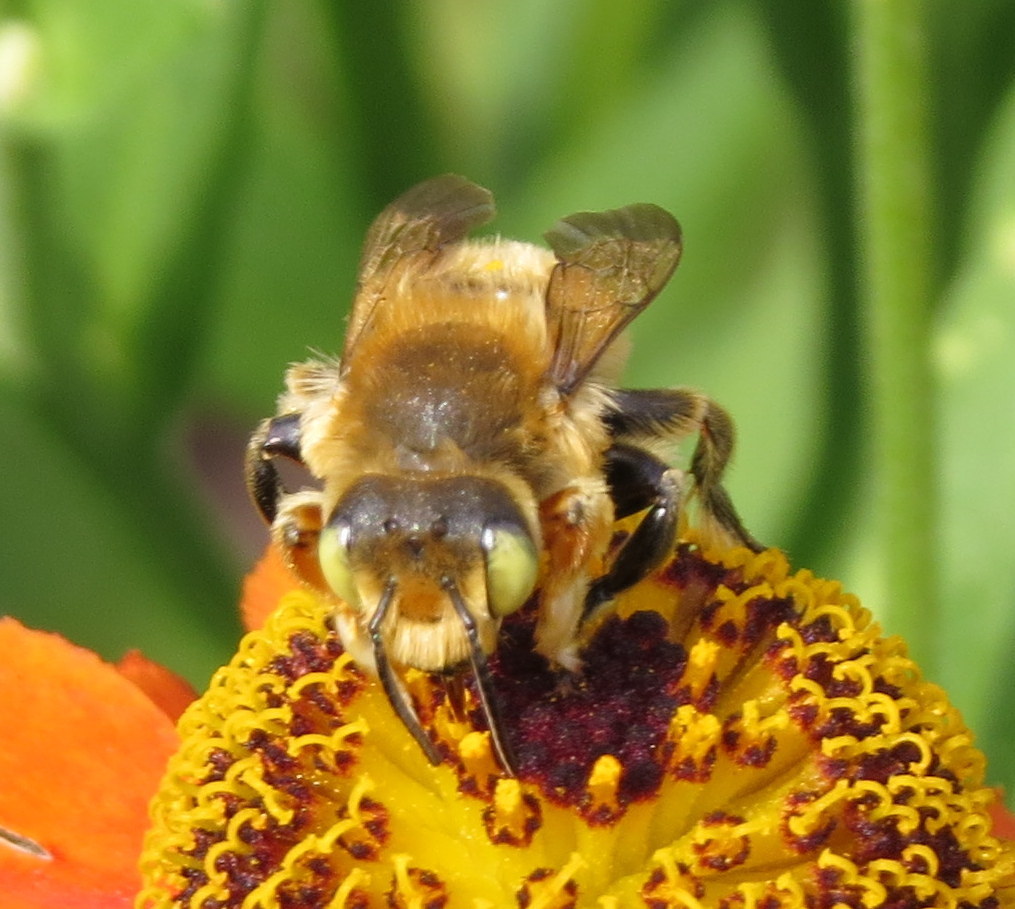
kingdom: Animalia
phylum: Arthropoda
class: Insecta
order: Hymenoptera
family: Megachilidae
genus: Megachile
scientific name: Megachile latimanus
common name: Leafcutting bee
